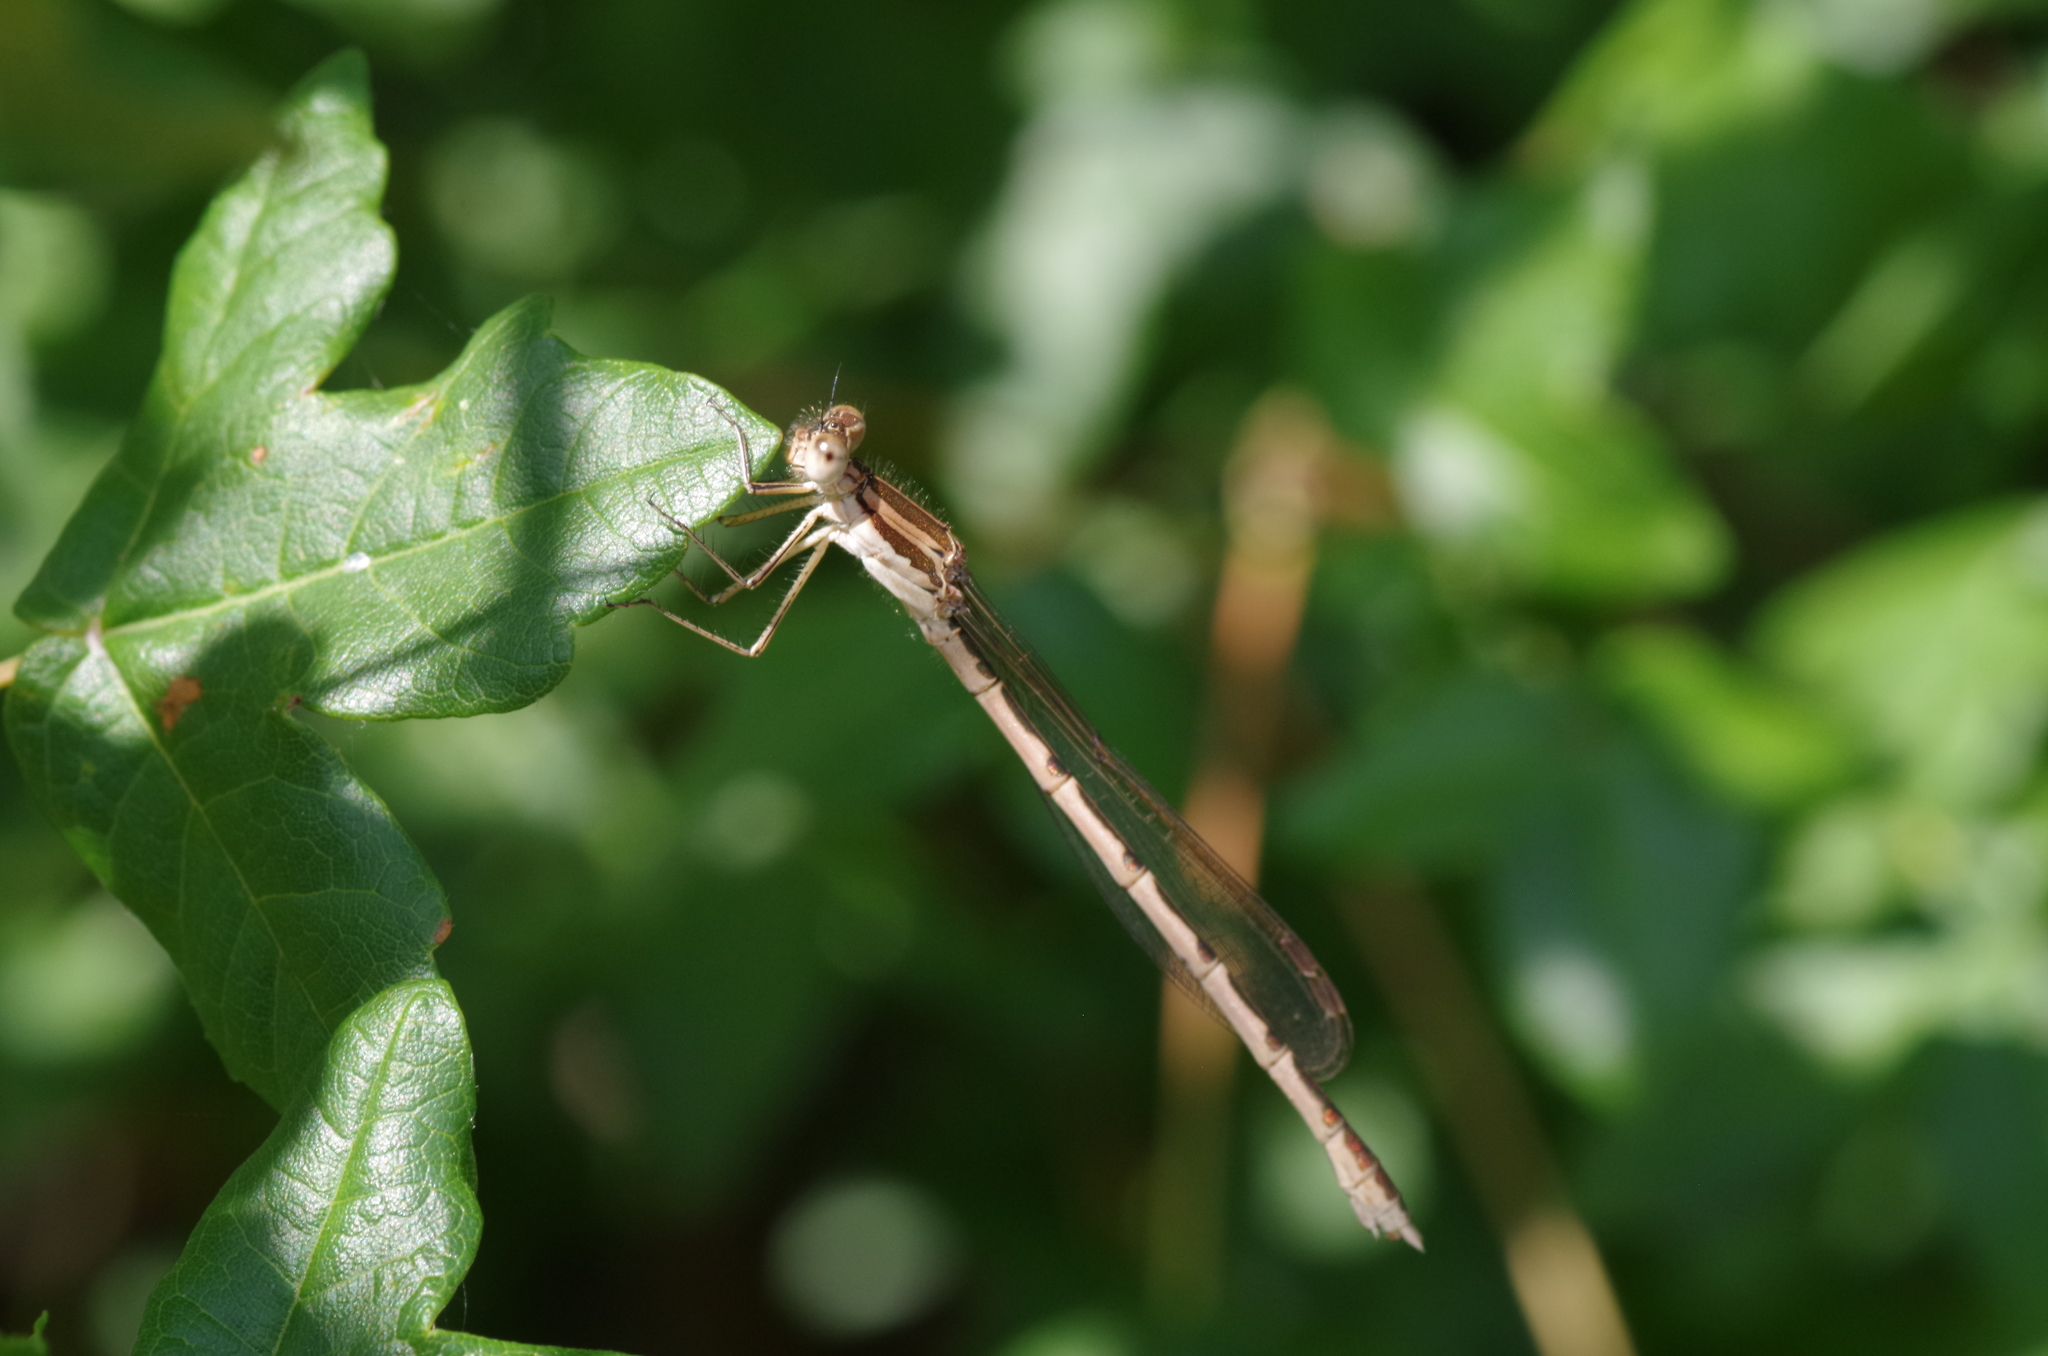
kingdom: Animalia
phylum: Arthropoda
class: Insecta
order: Odonata
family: Lestidae
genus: Sympecma
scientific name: Sympecma fusca
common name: Common winter damsel
